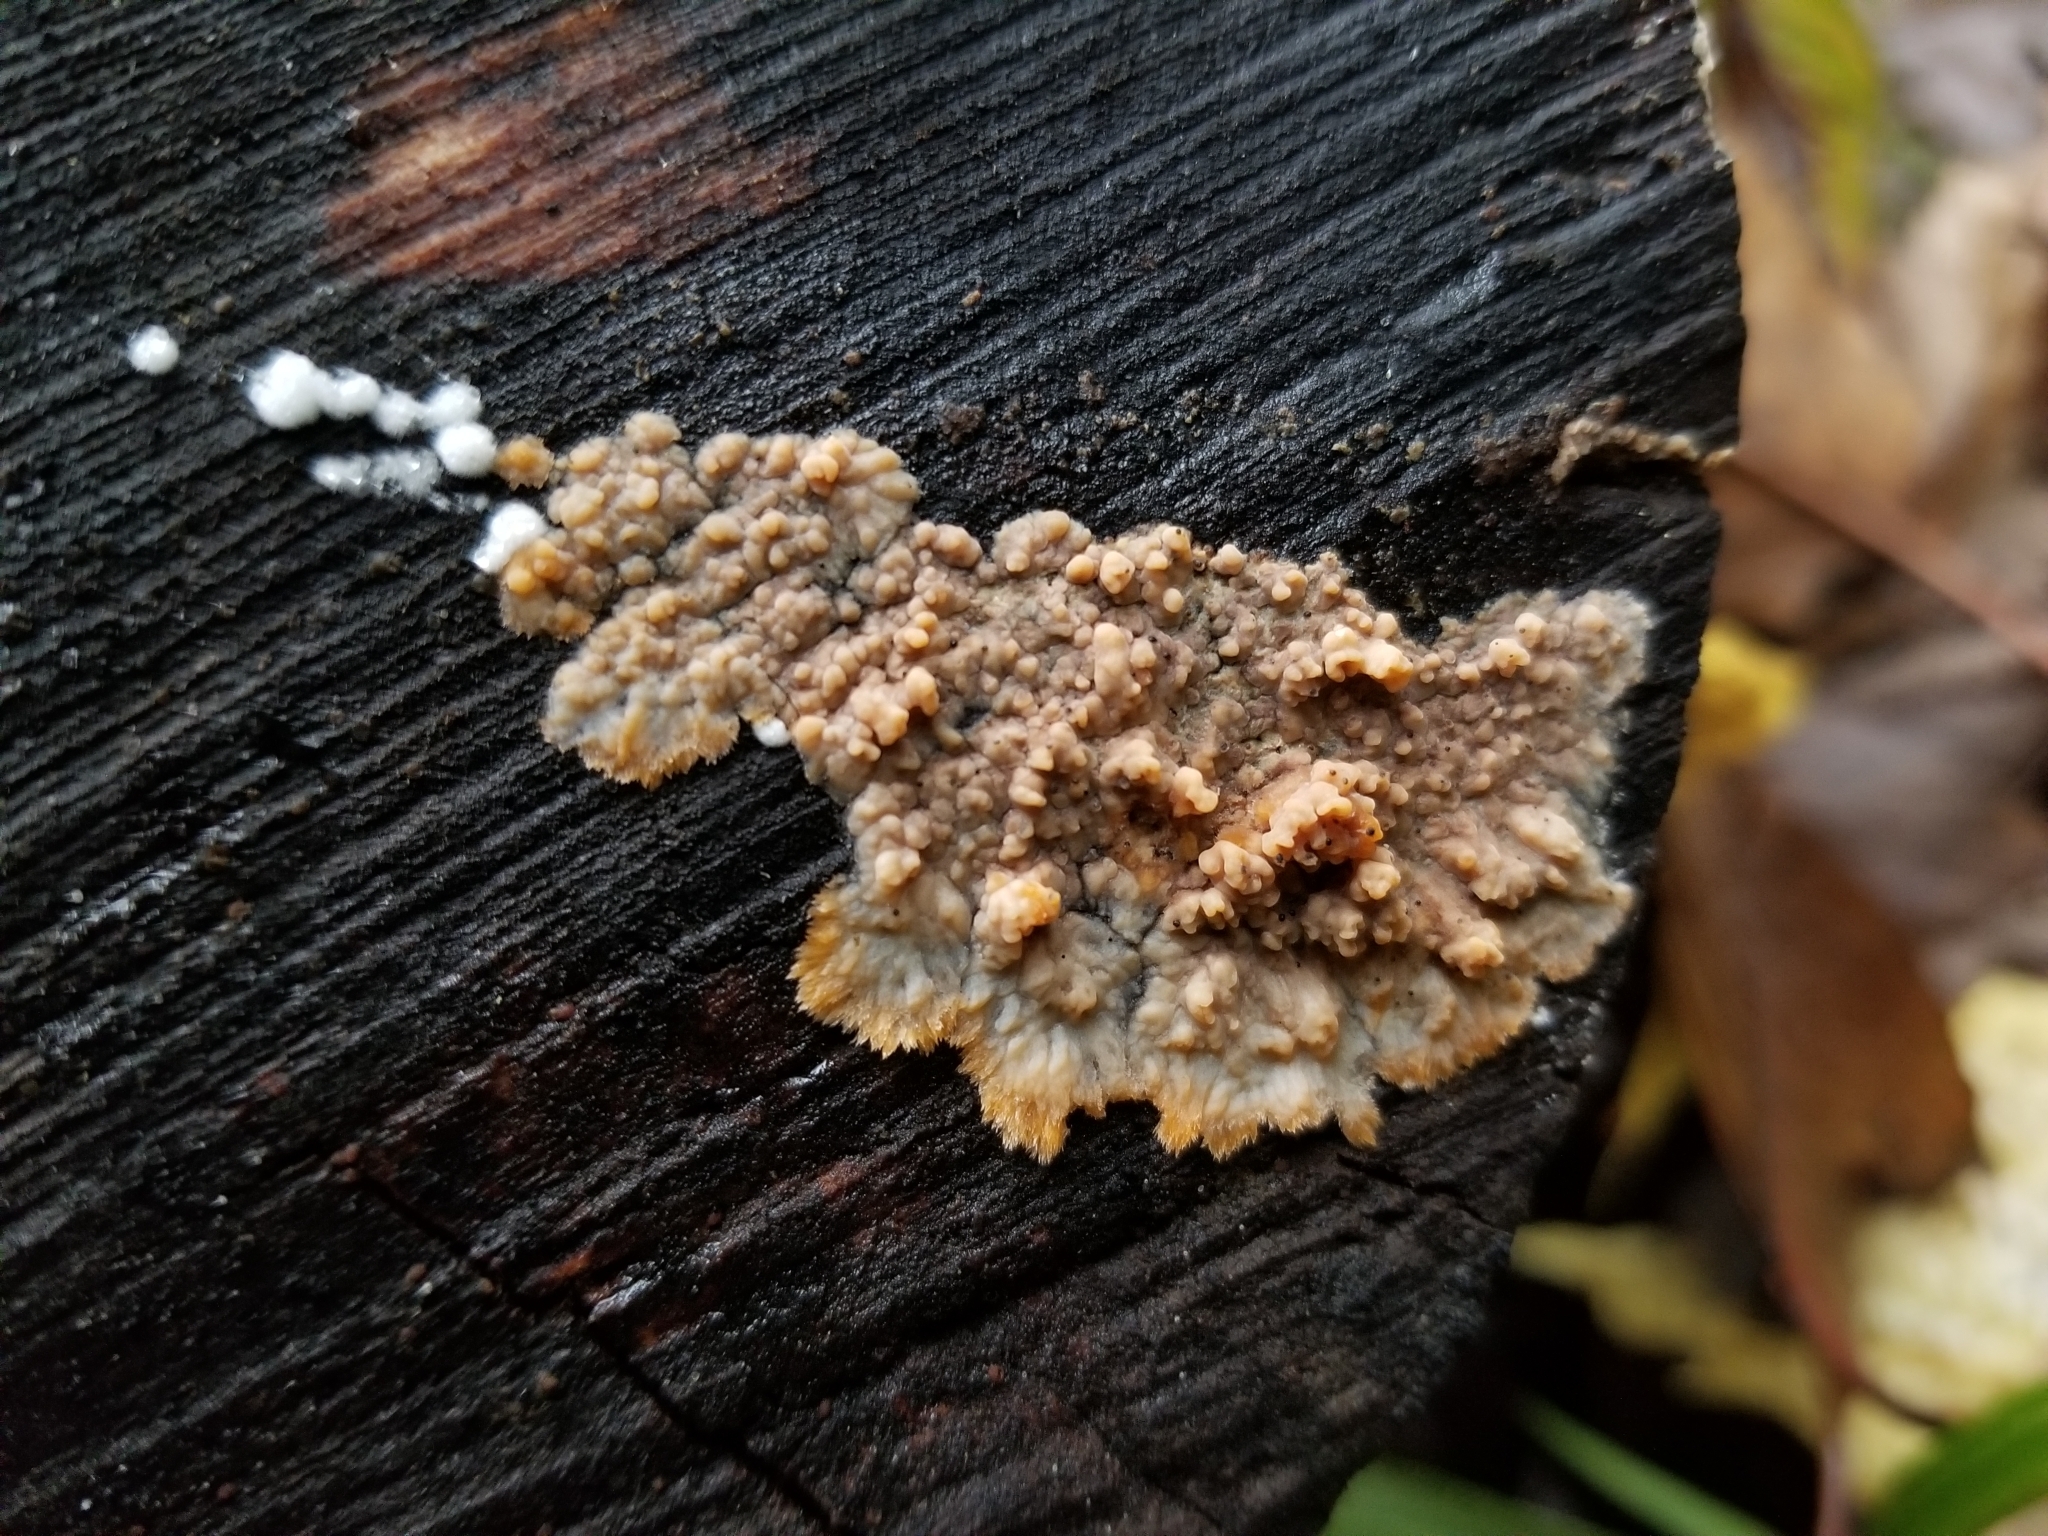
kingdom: Fungi
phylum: Basidiomycota
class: Agaricomycetes
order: Polyporales
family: Meruliaceae
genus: Phlebia
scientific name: Phlebia radiata
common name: Wrinkled crust
